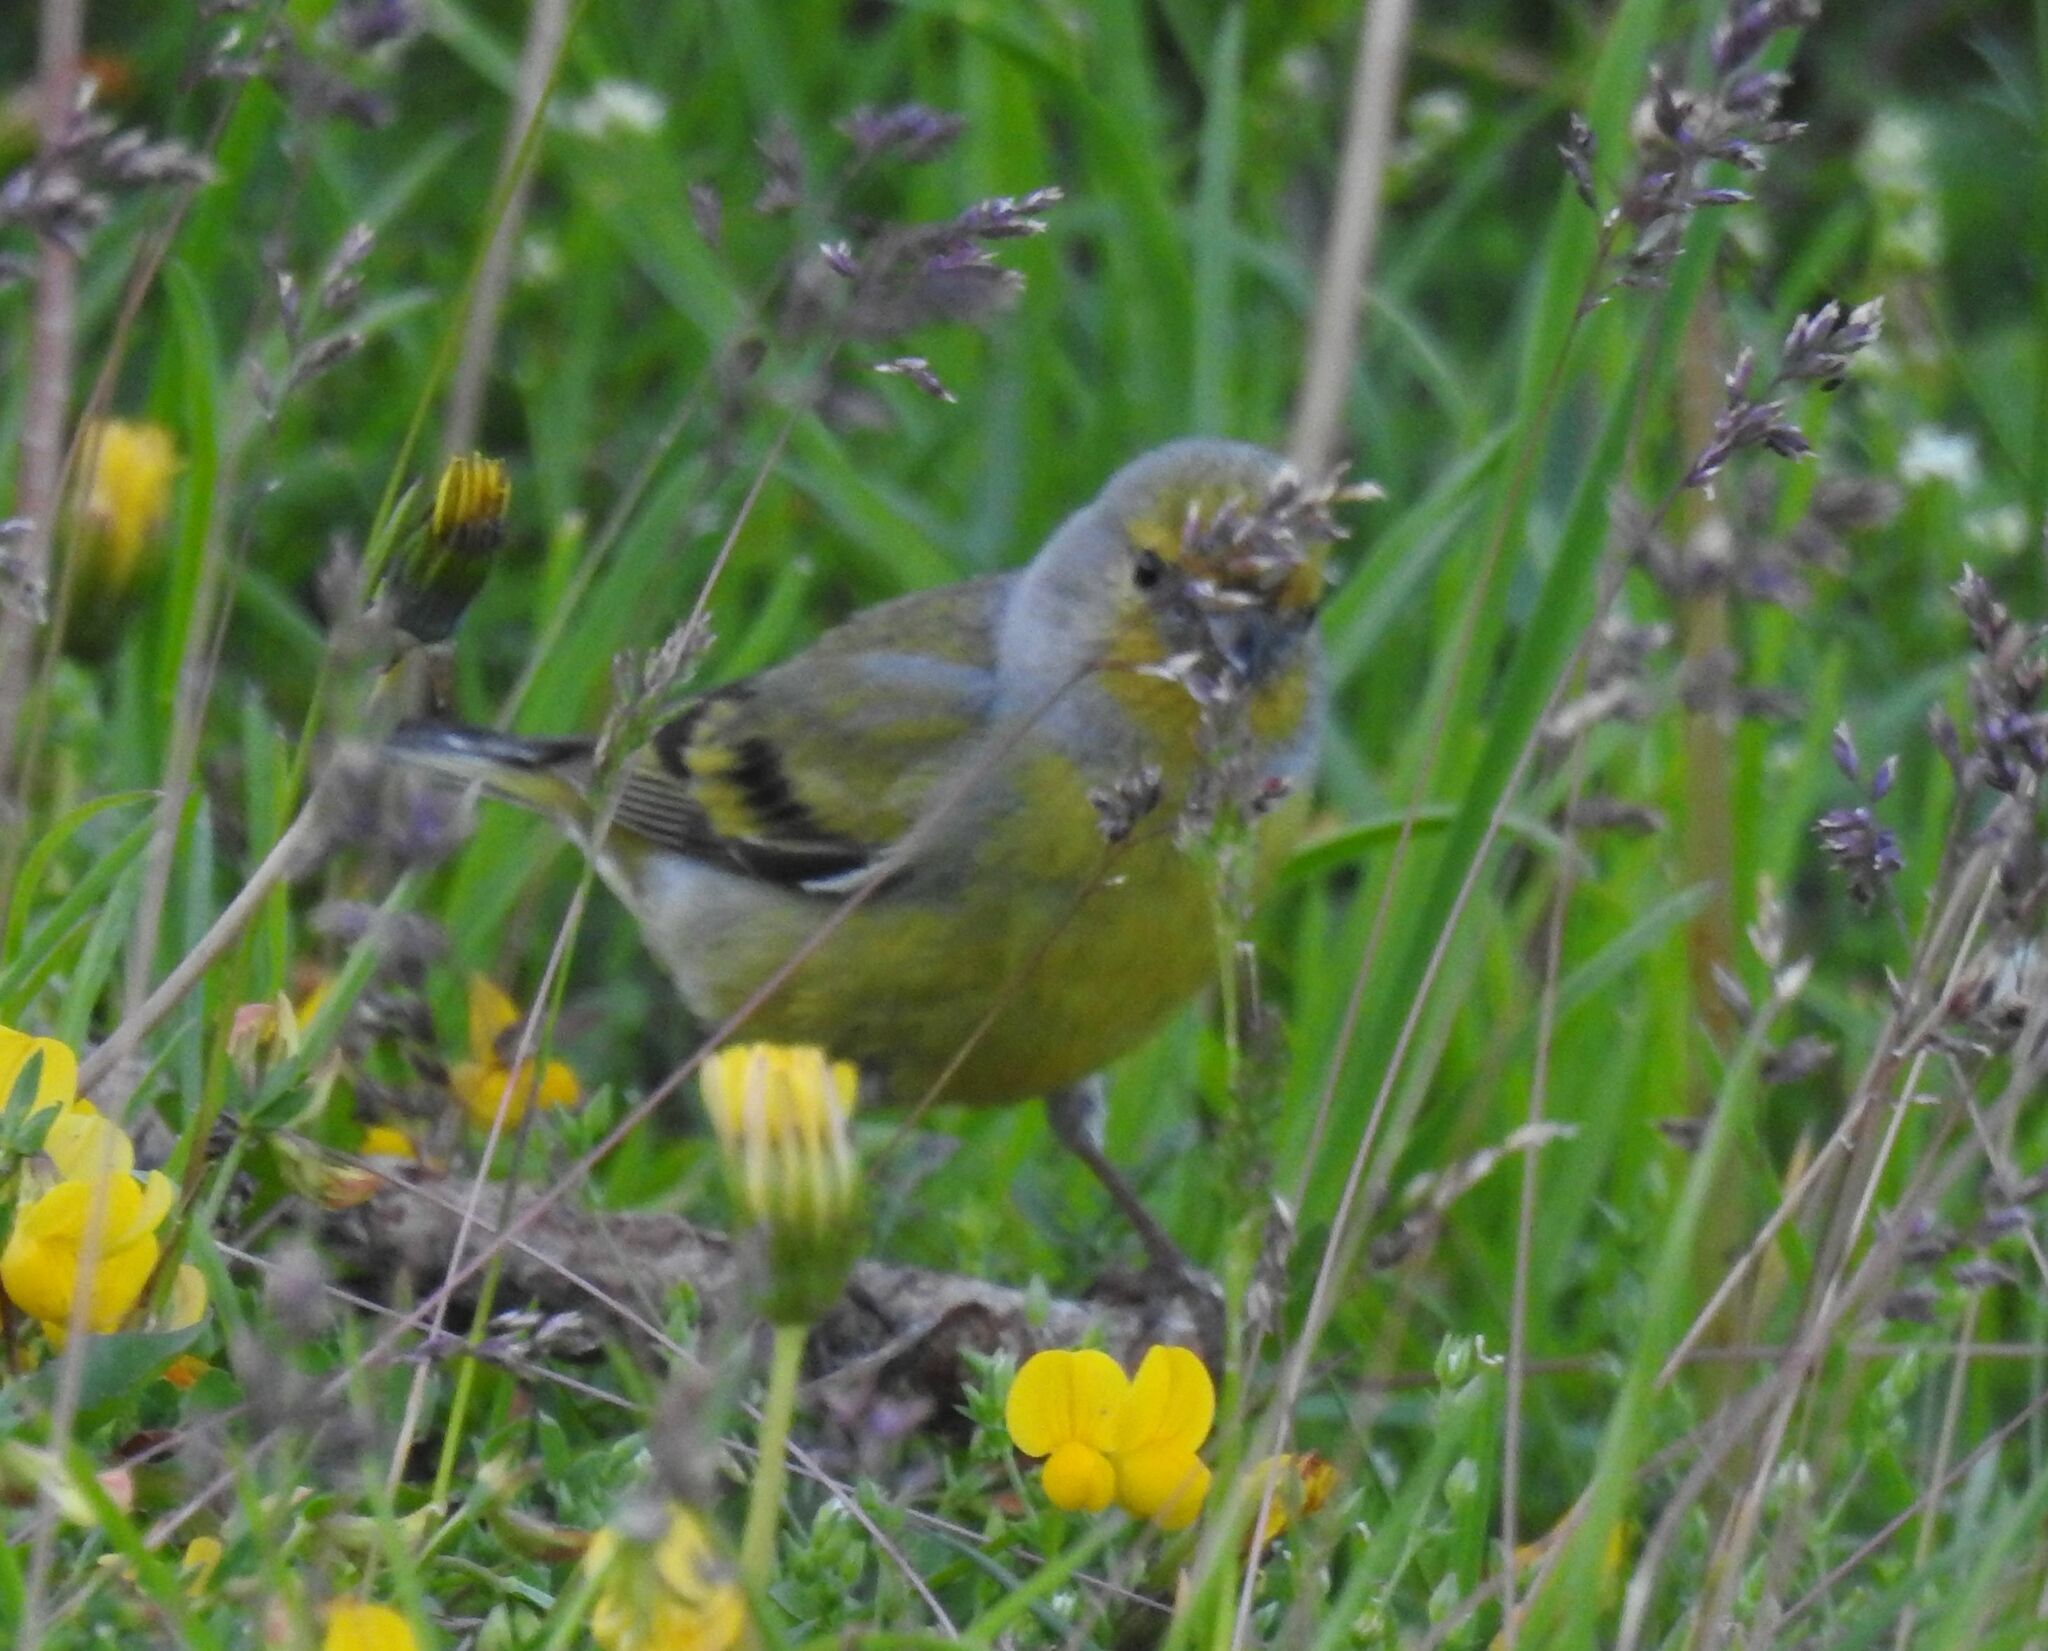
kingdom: Animalia
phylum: Chordata
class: Aves
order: Passeriformes
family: Fringillidae
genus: Carduelis
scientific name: Carduelis citrinella
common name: Citril finch
